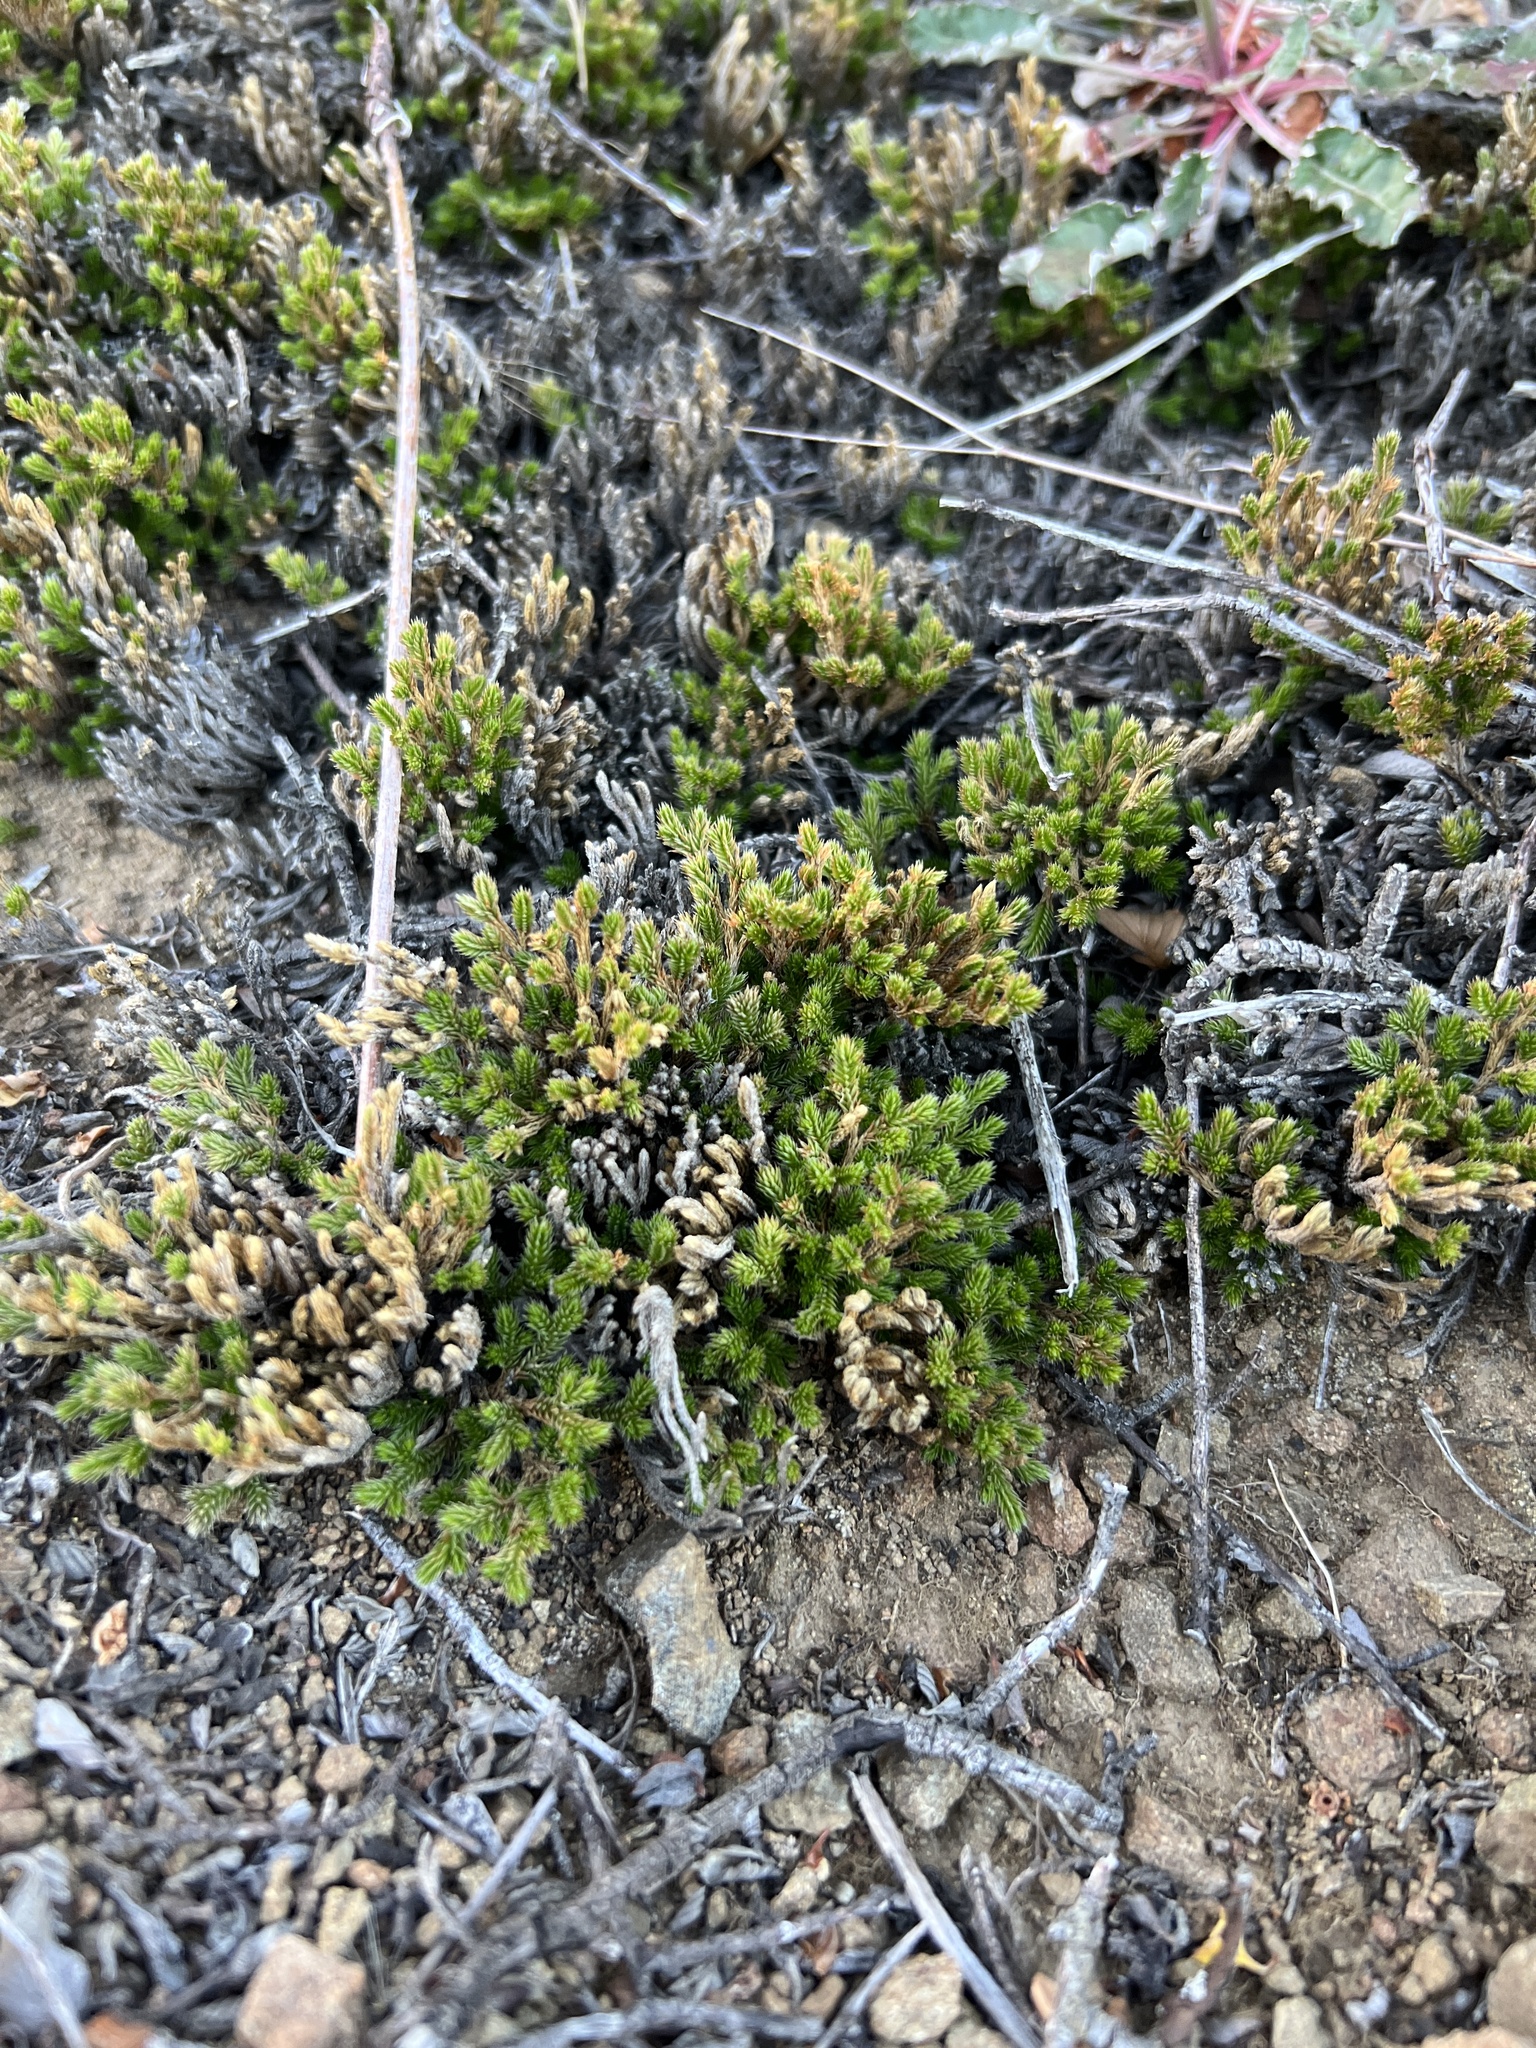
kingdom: Plantae
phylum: Tracheophyta
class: Lycopodiopsida
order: Selaginellales
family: Selaginellaceae
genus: Selaginella
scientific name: Selaginella bigelovii
